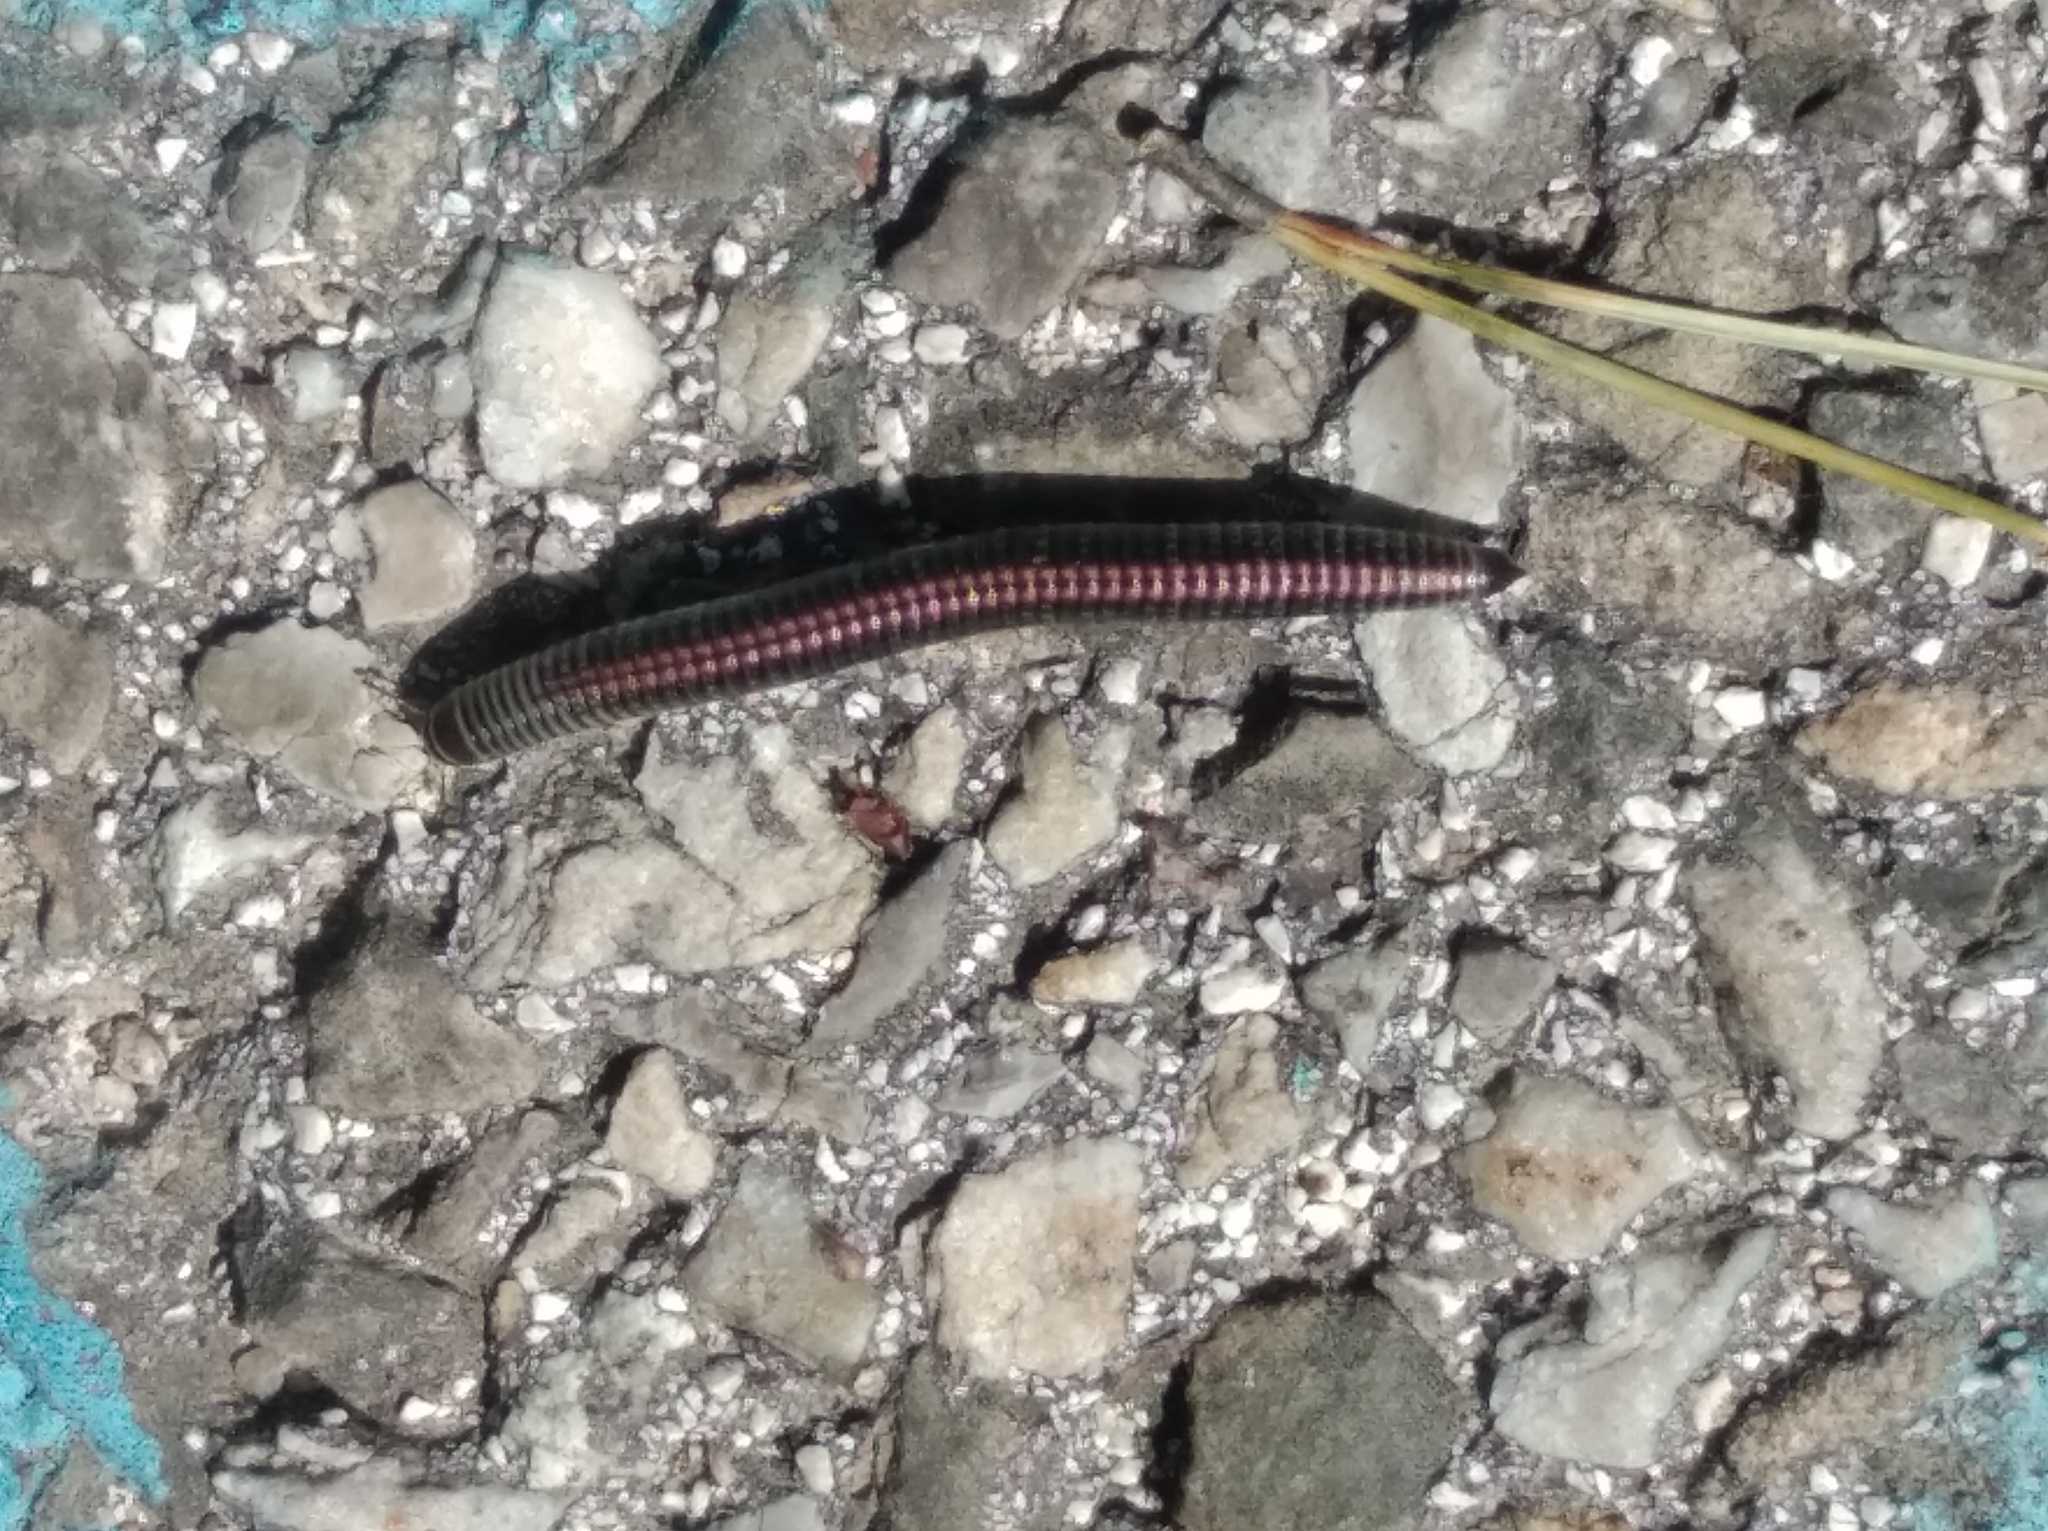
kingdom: Animalia
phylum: Arthropoda
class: Diplopoda
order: Julida
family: Julidae
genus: Ommatoiulus
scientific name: Ommatoiulus sabulosus
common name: Striped millipede
